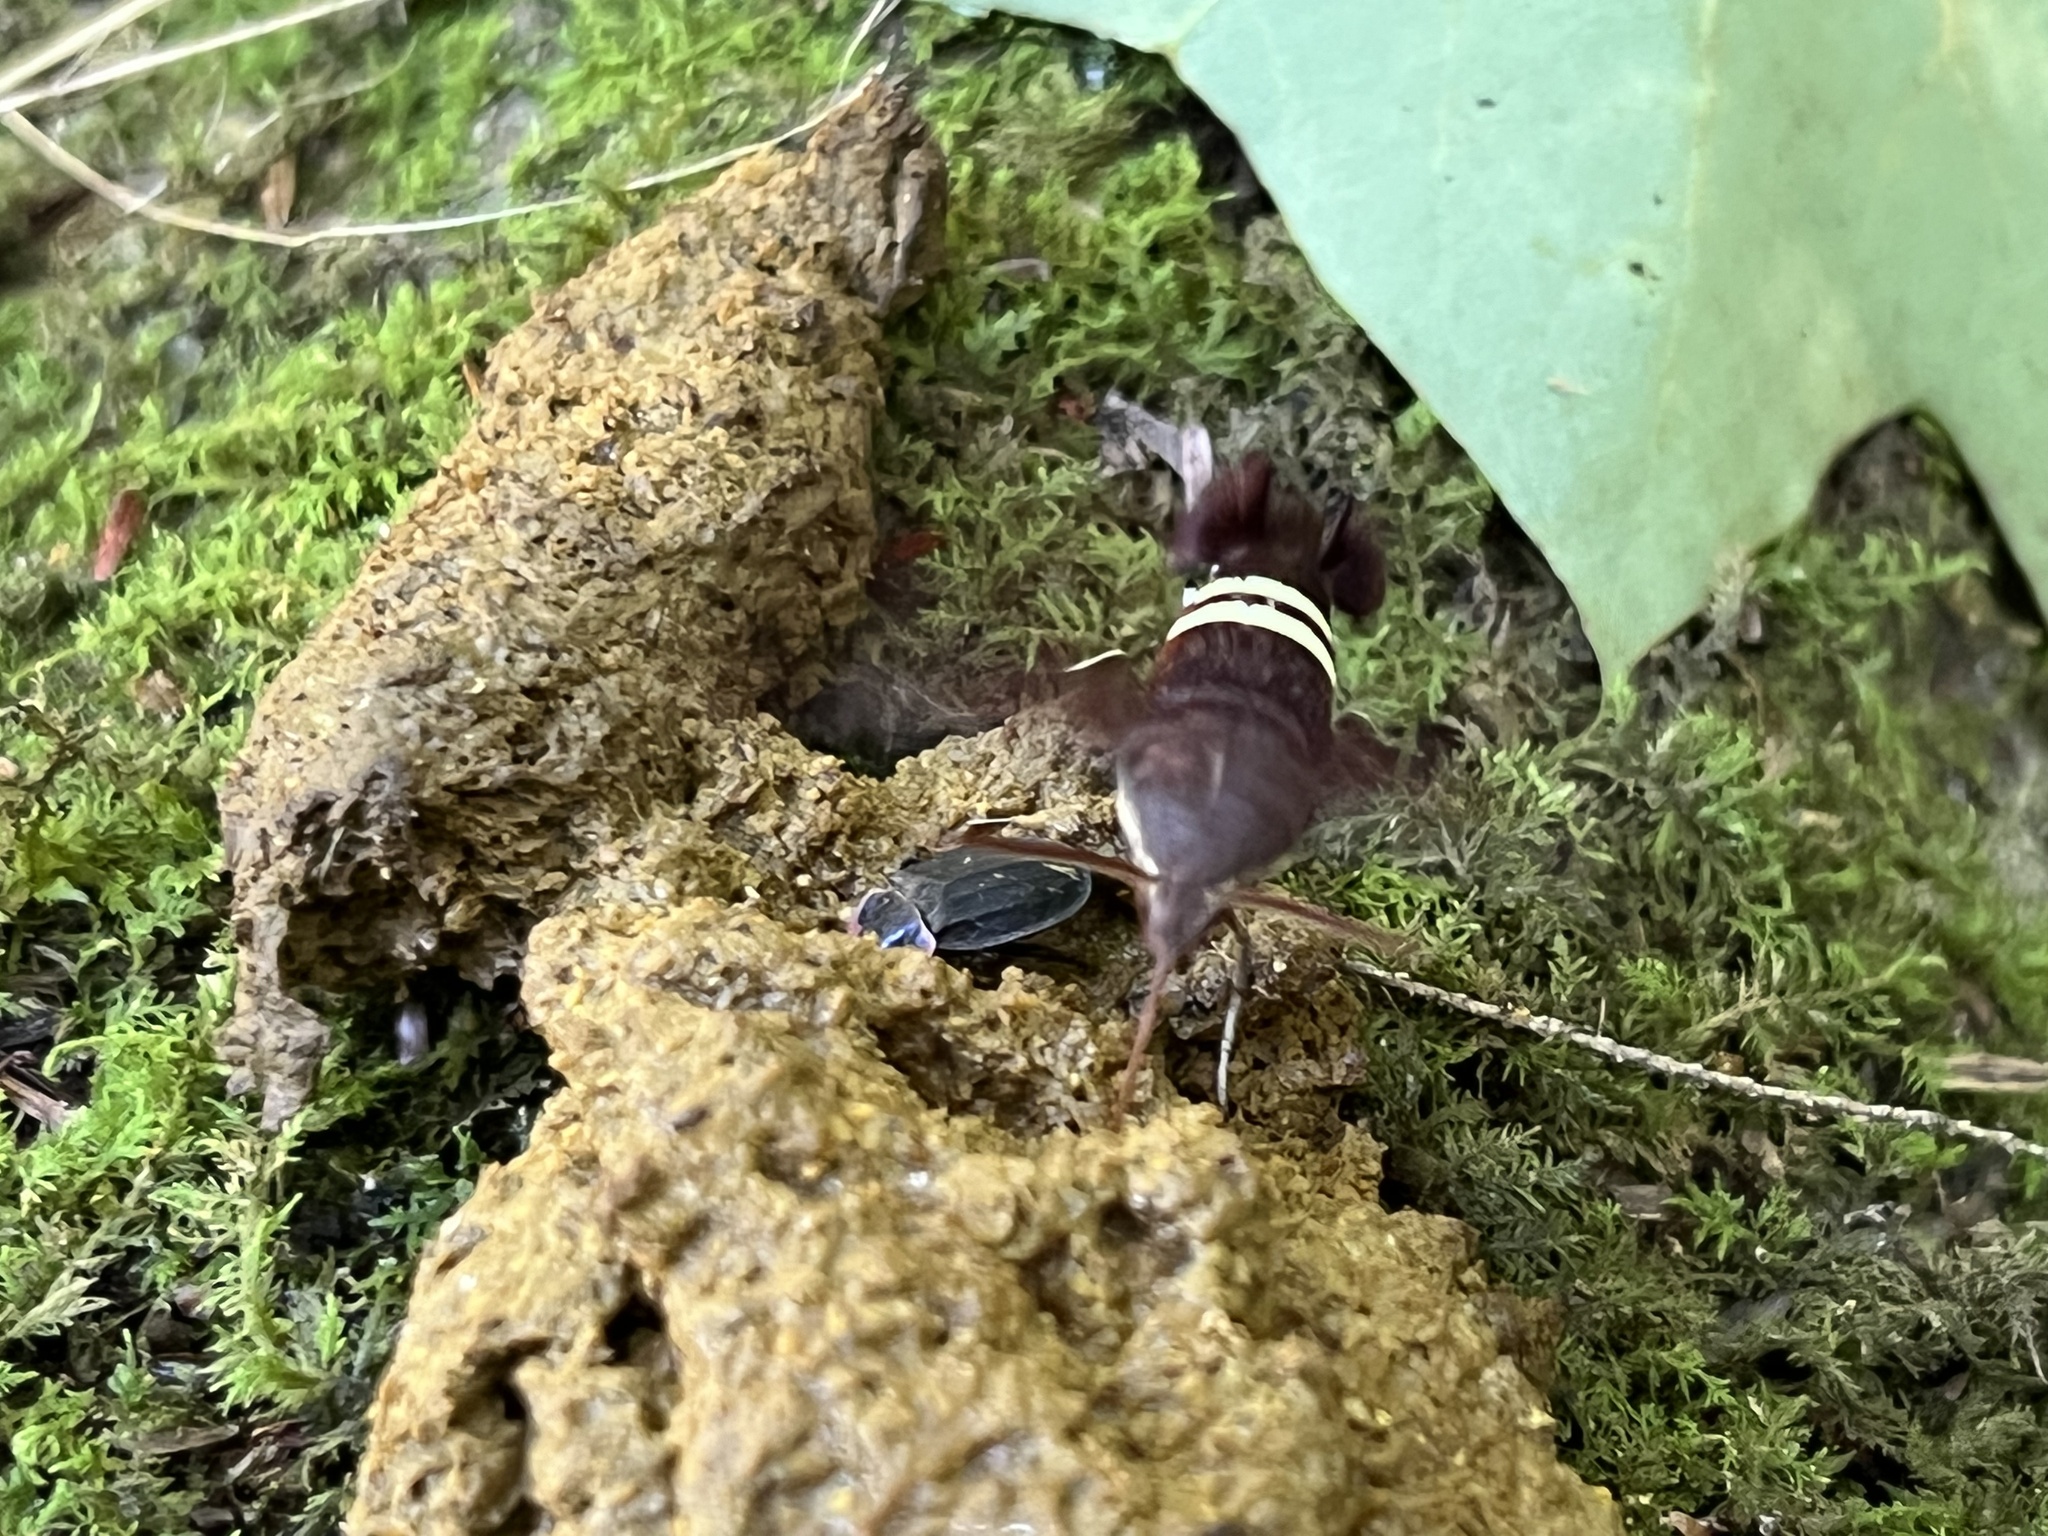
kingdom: Animalia
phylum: Arthropoda
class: Insecta
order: Lepidoptera
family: Sphingidae
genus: Amphion
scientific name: Amphion floridensis
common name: Nessus sphinx
